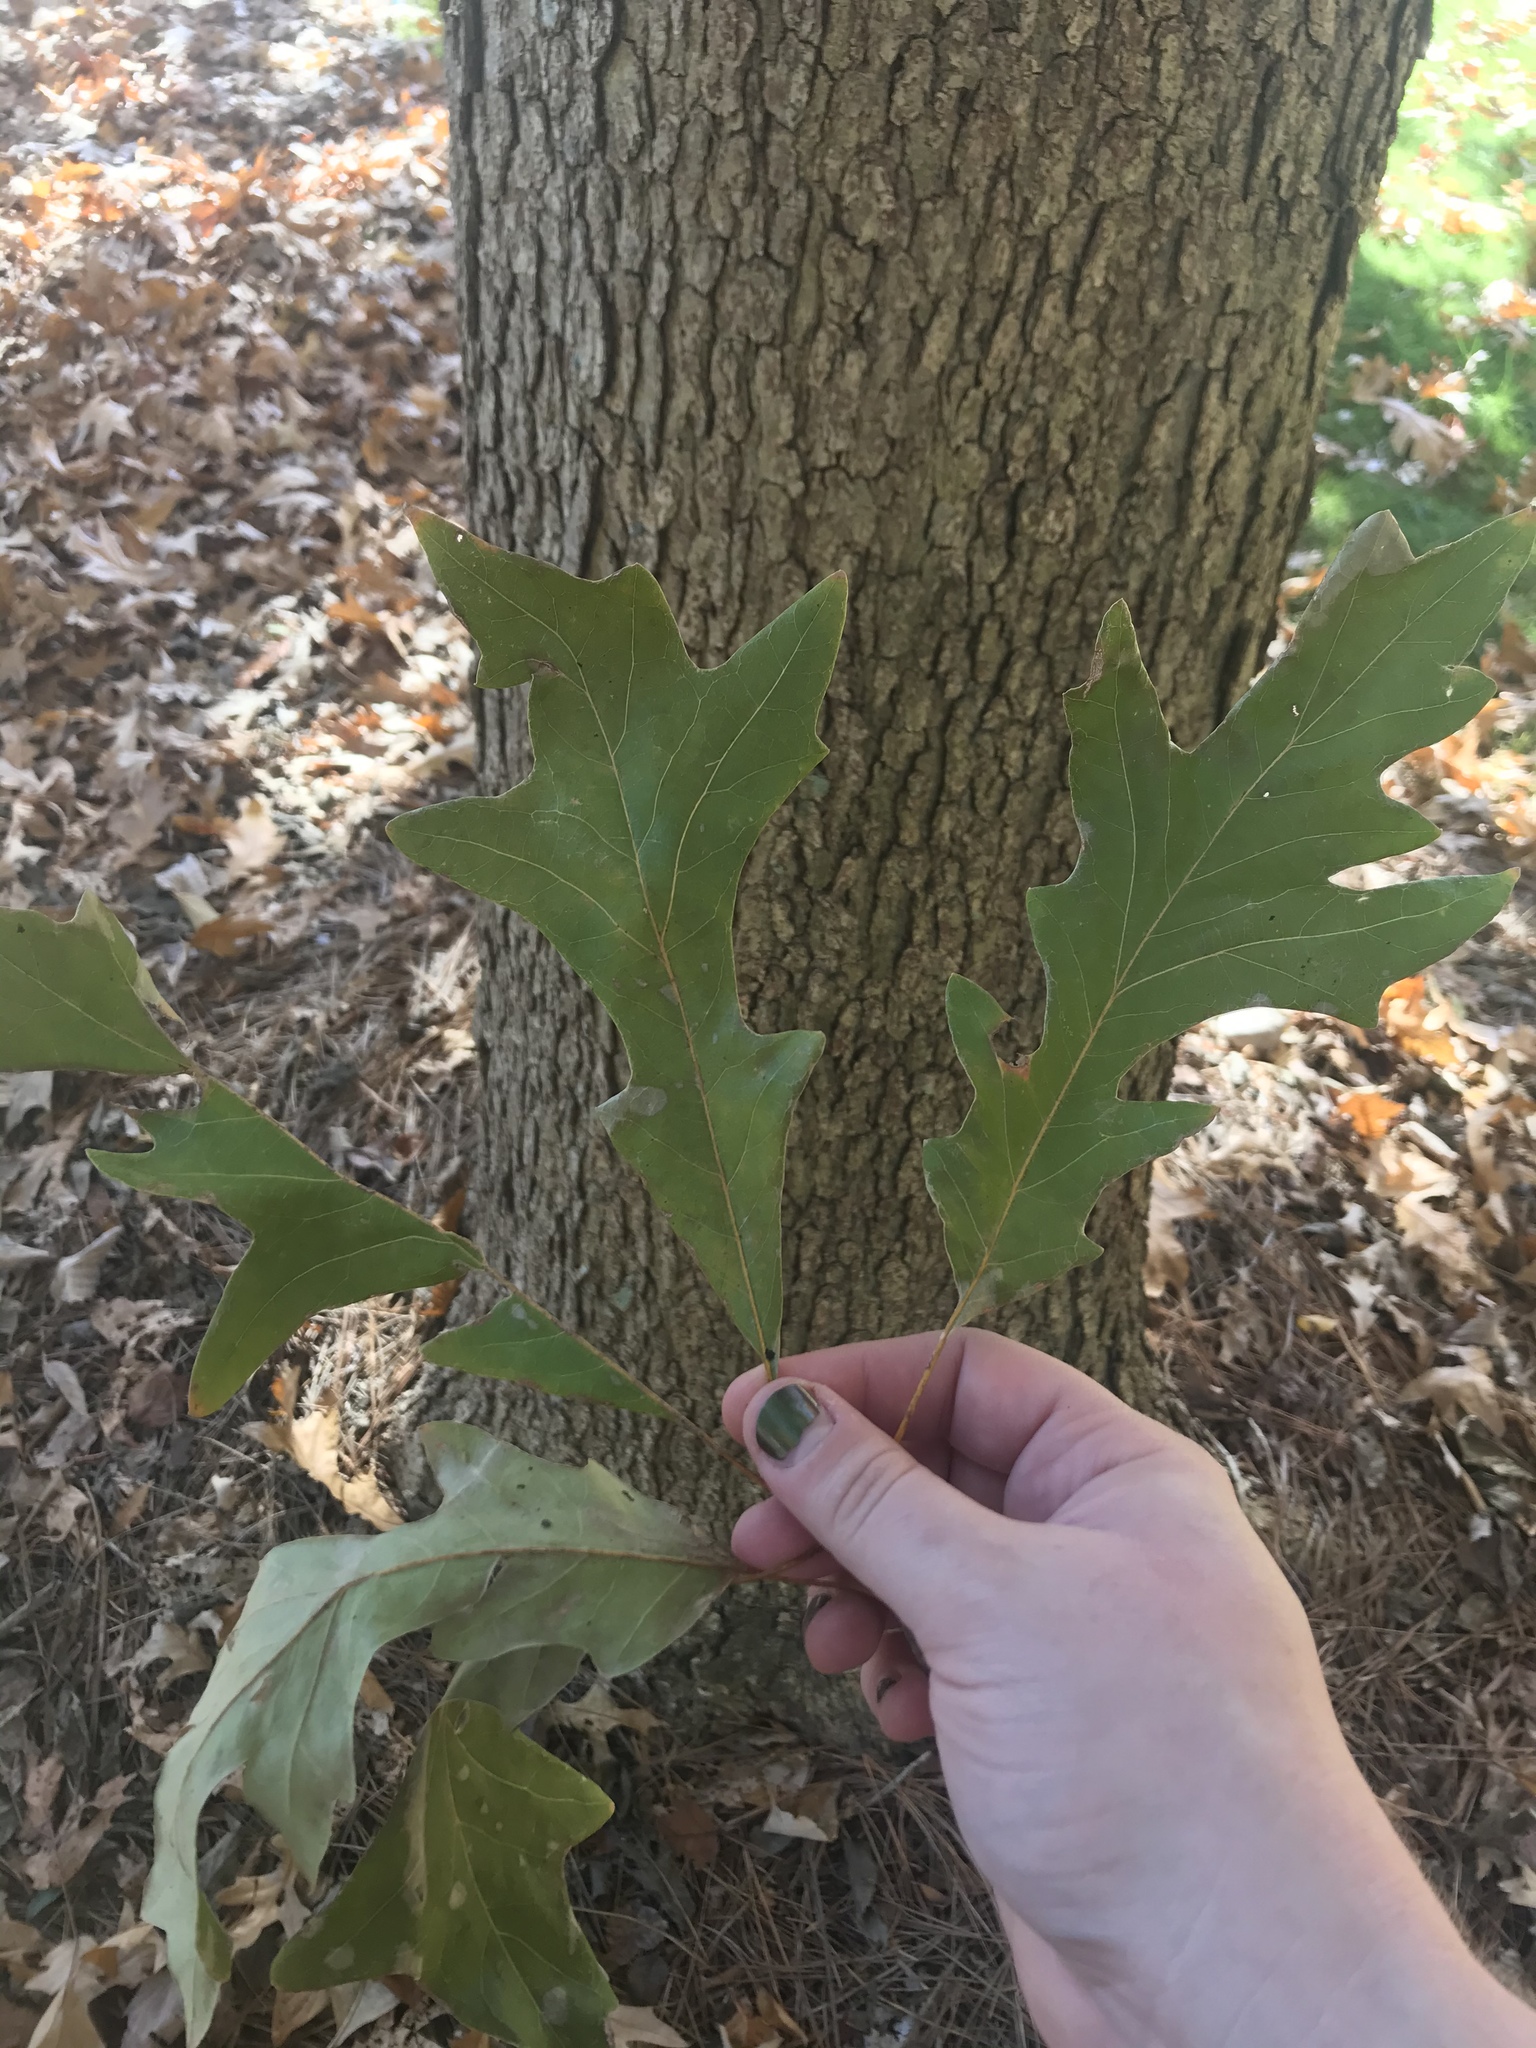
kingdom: Plantae
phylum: Tracheophyta
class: Magnoliopsida
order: Fagales
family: Fagaceae
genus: Quercus
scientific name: Quercus lyrata
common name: Overcup oak
